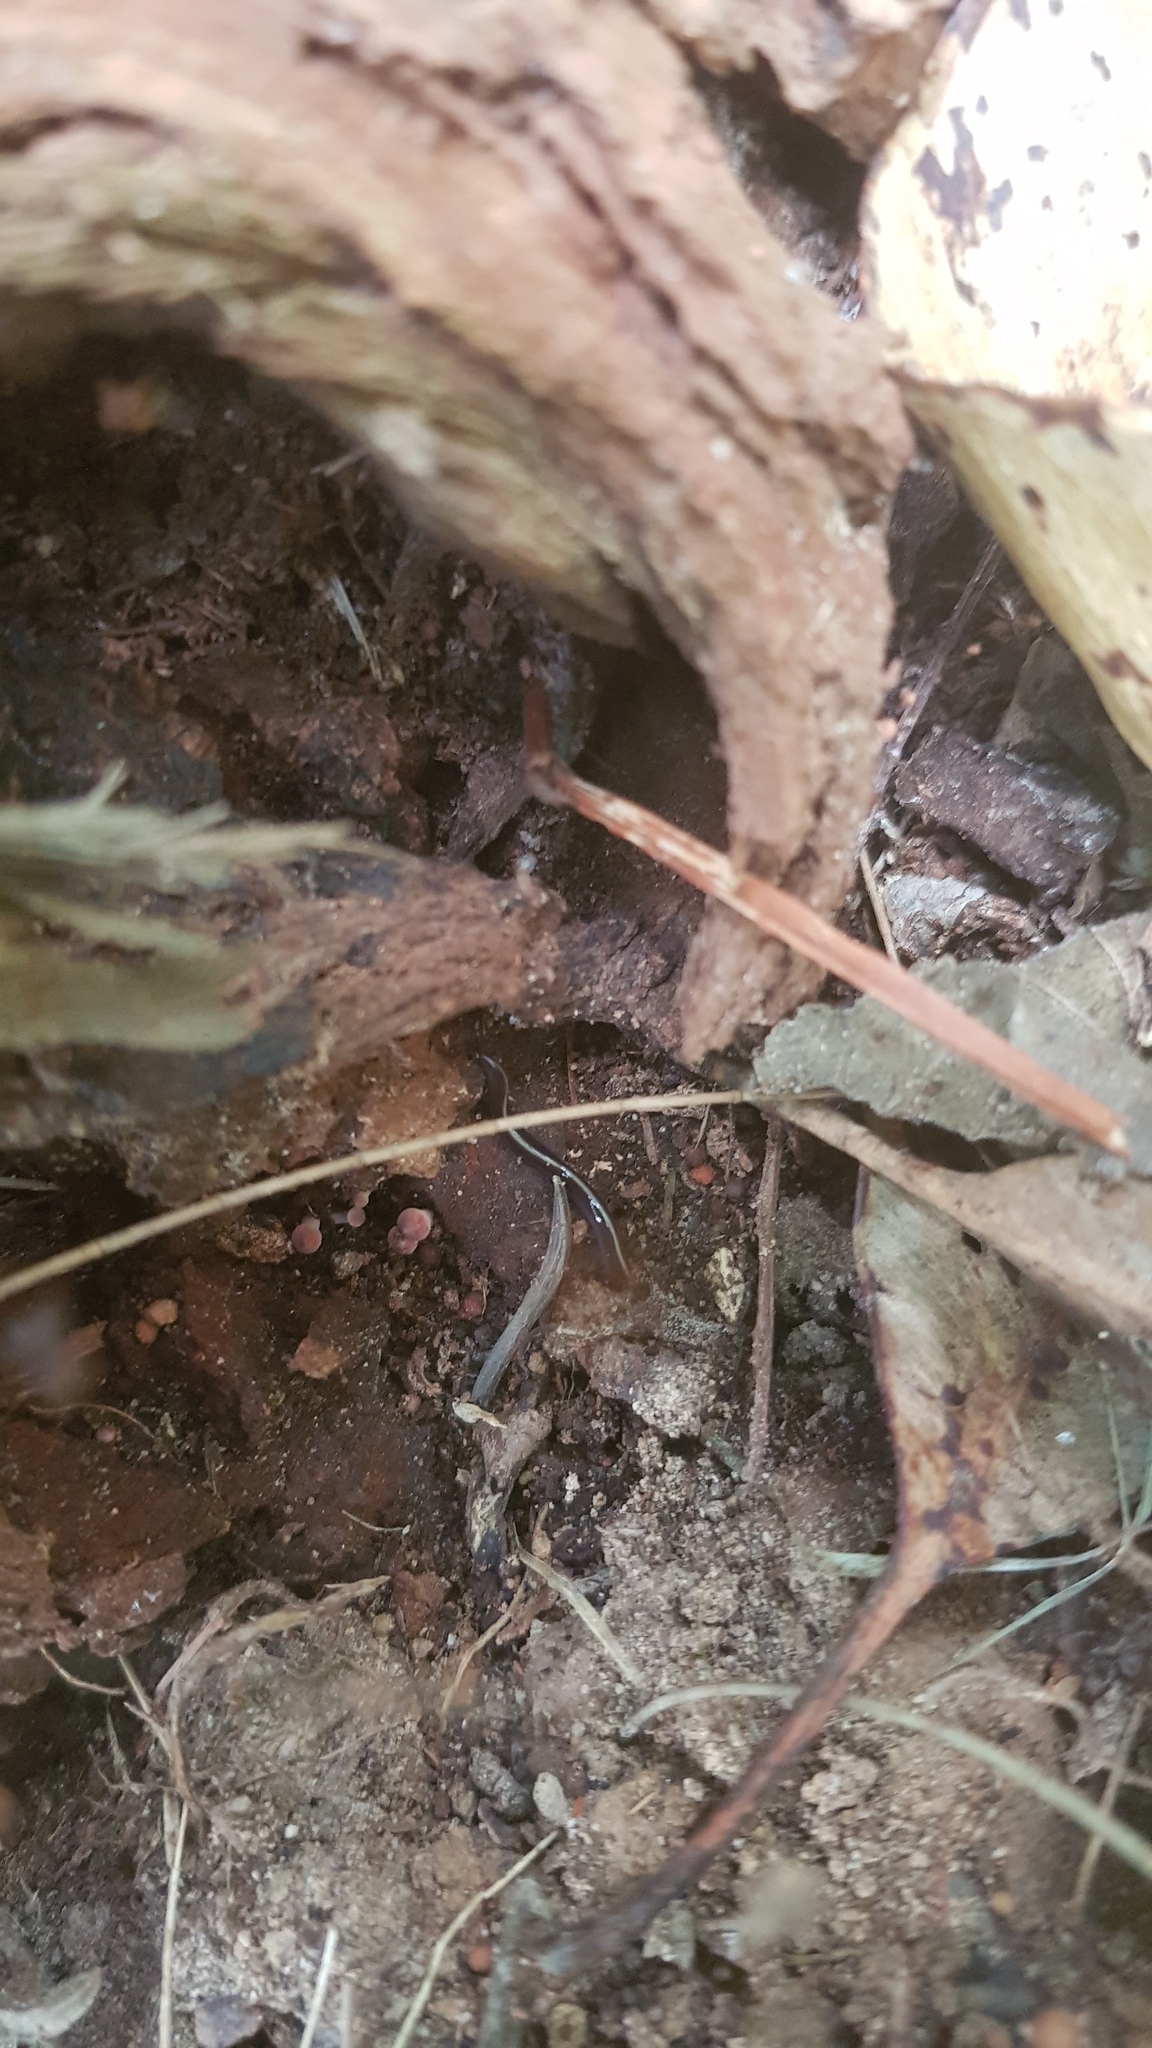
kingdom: Animalia
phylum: Platyhelminthes
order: Tricladida
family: Geoplanidae
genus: Caenoplana
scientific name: Caenoplana coerulea
